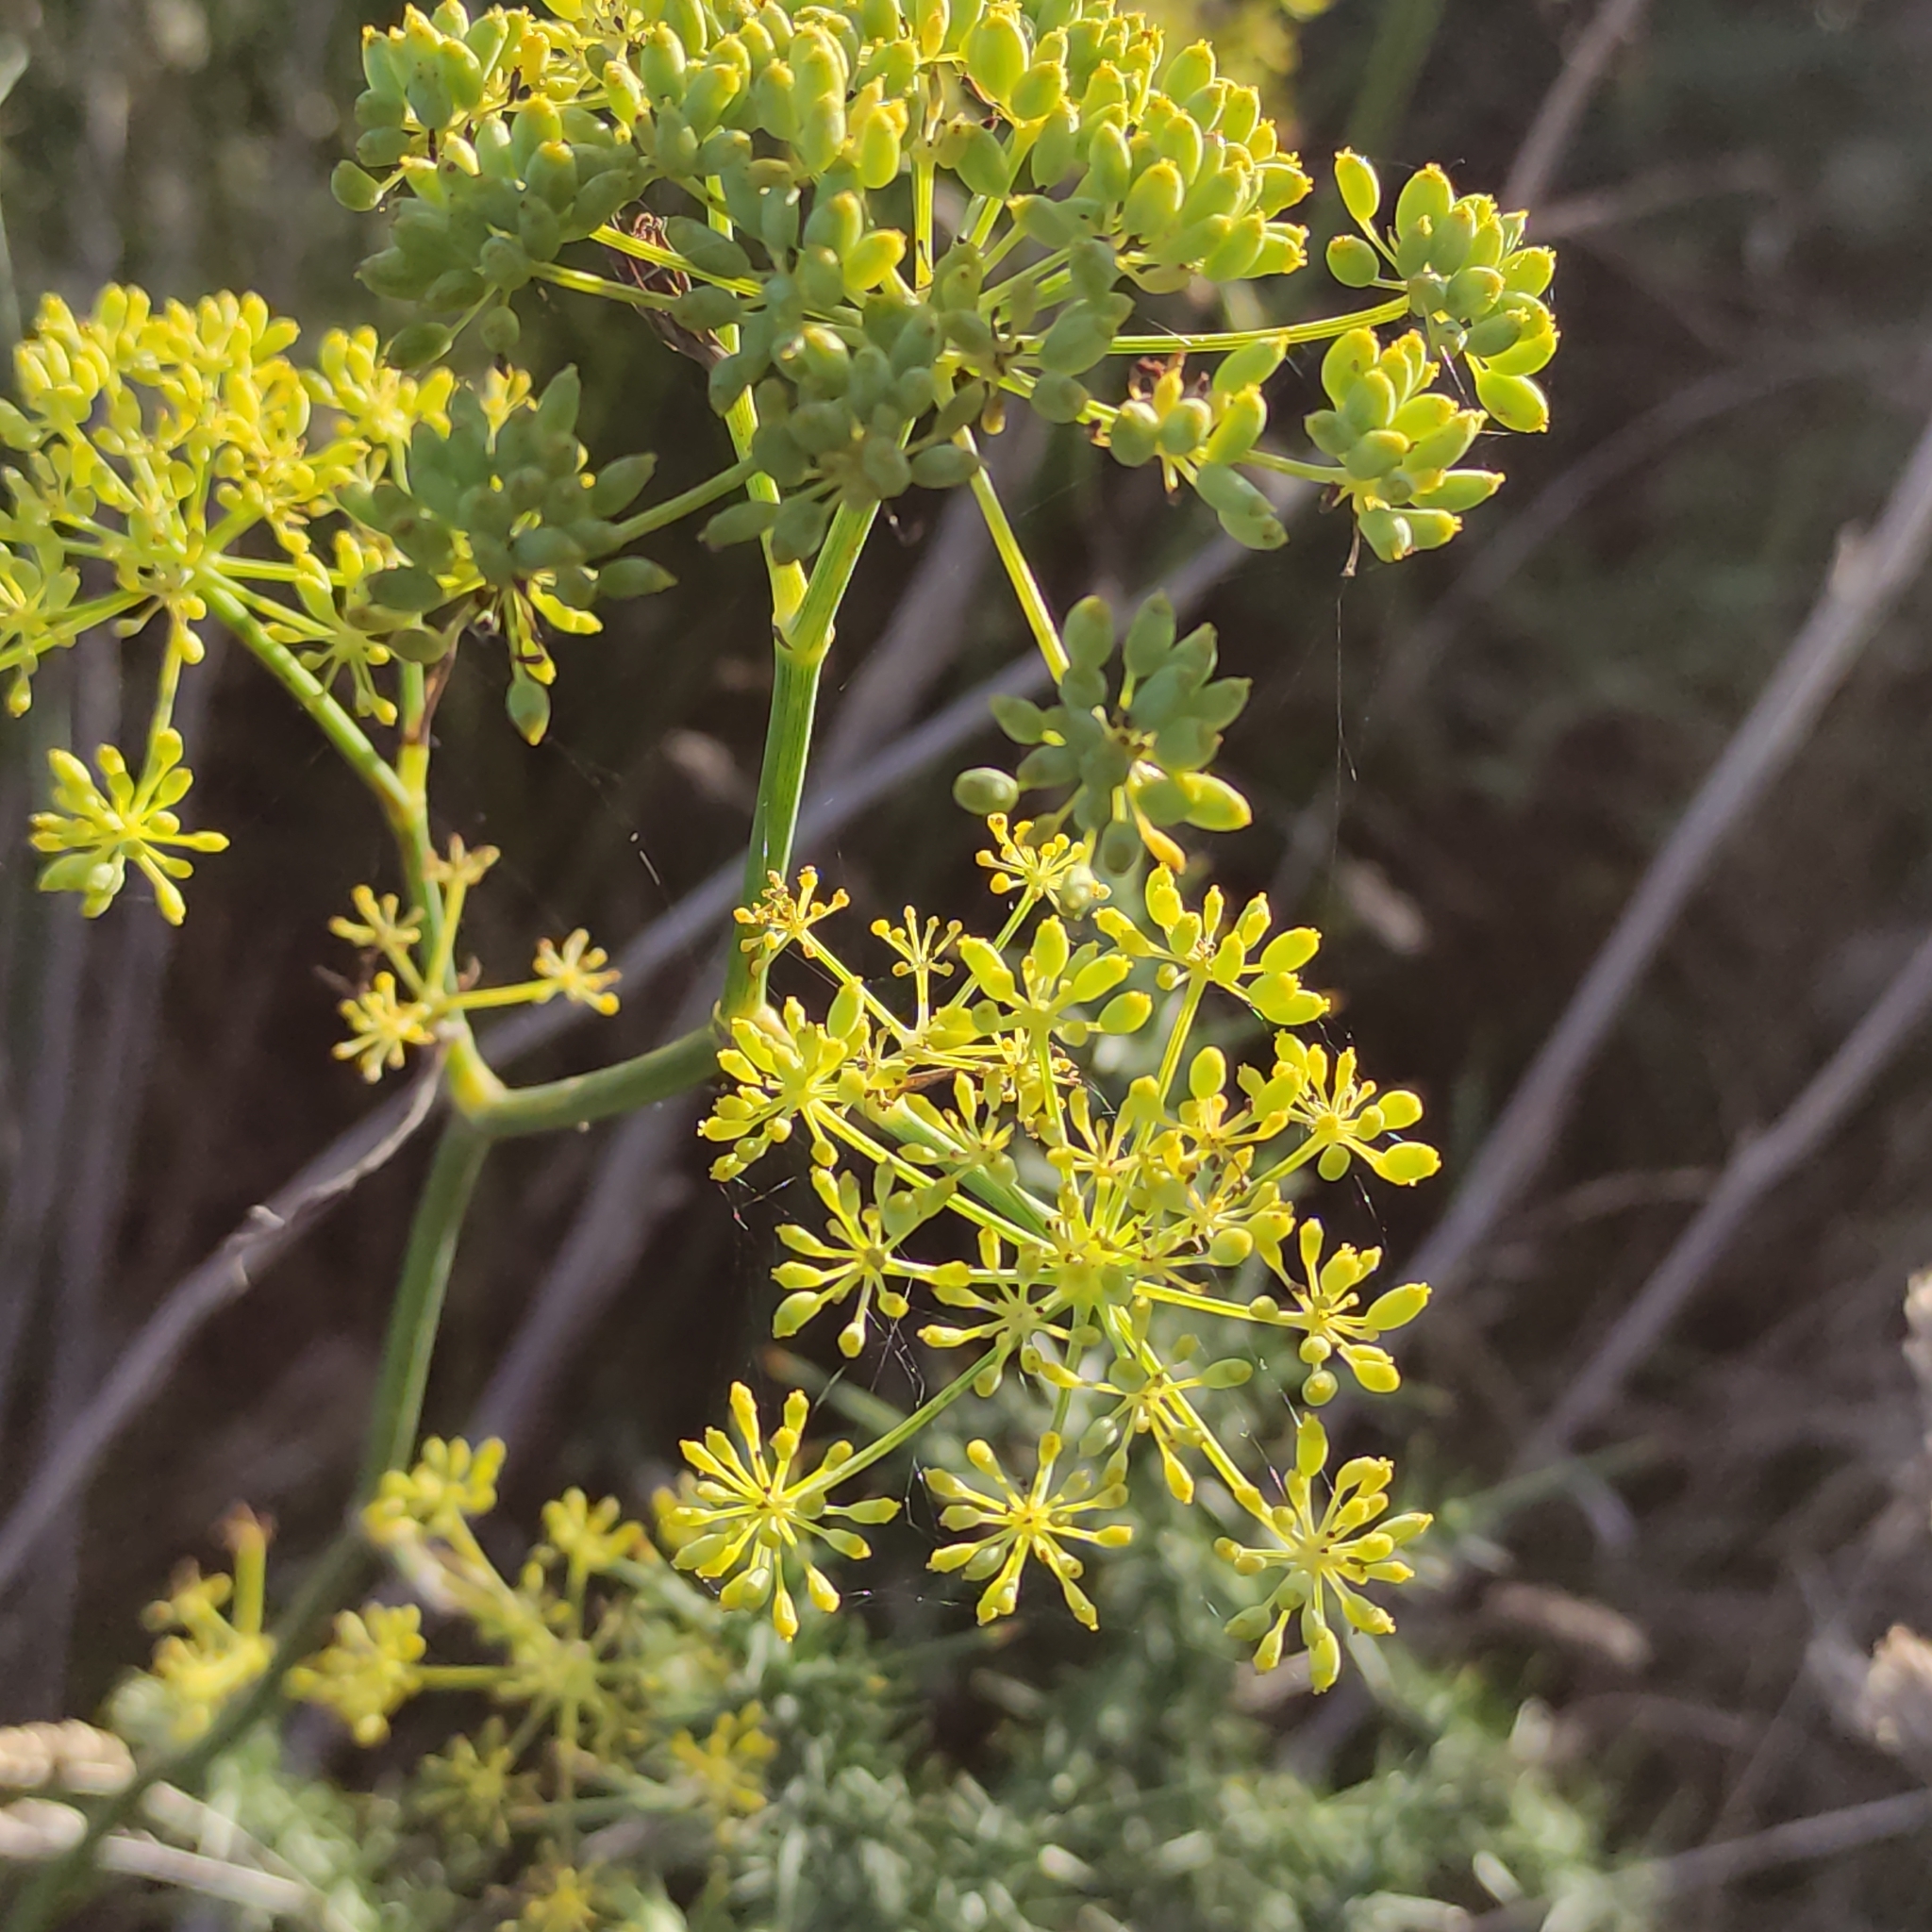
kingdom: Plantae
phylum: Tracheophyta
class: Magnoliopsida
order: Apiales
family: Apiaceae
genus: Foeniculum
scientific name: Foeniculum vulgare
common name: Fennel
